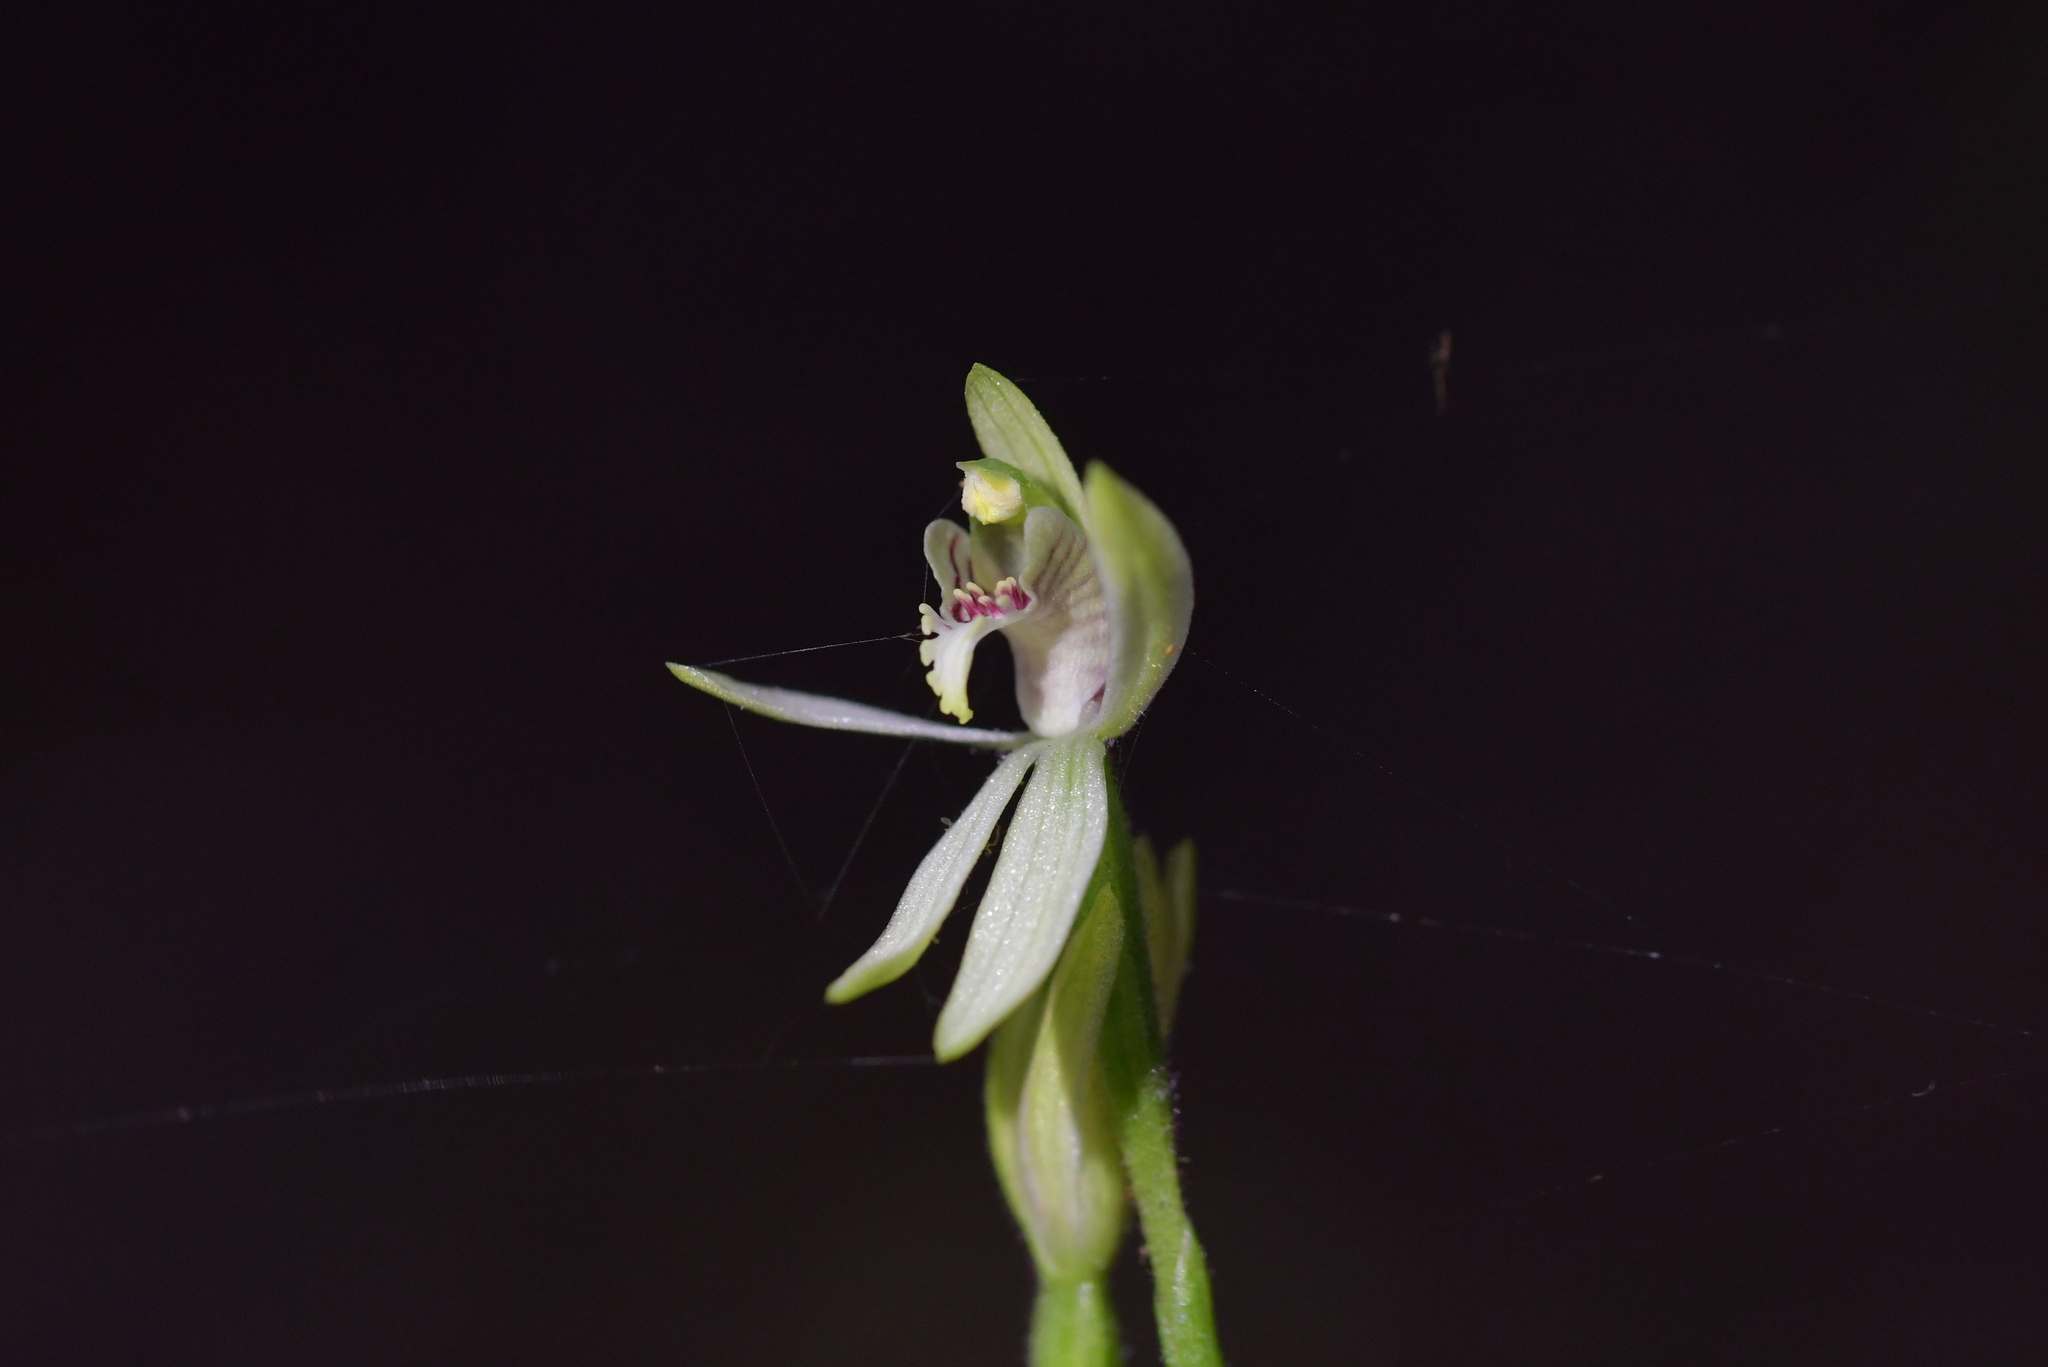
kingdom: Plantae
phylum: Tracheophyta
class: Liliopsida
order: Asparagales
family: Orchidaceae
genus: Caladenia
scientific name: Caladenia chlorostyla
